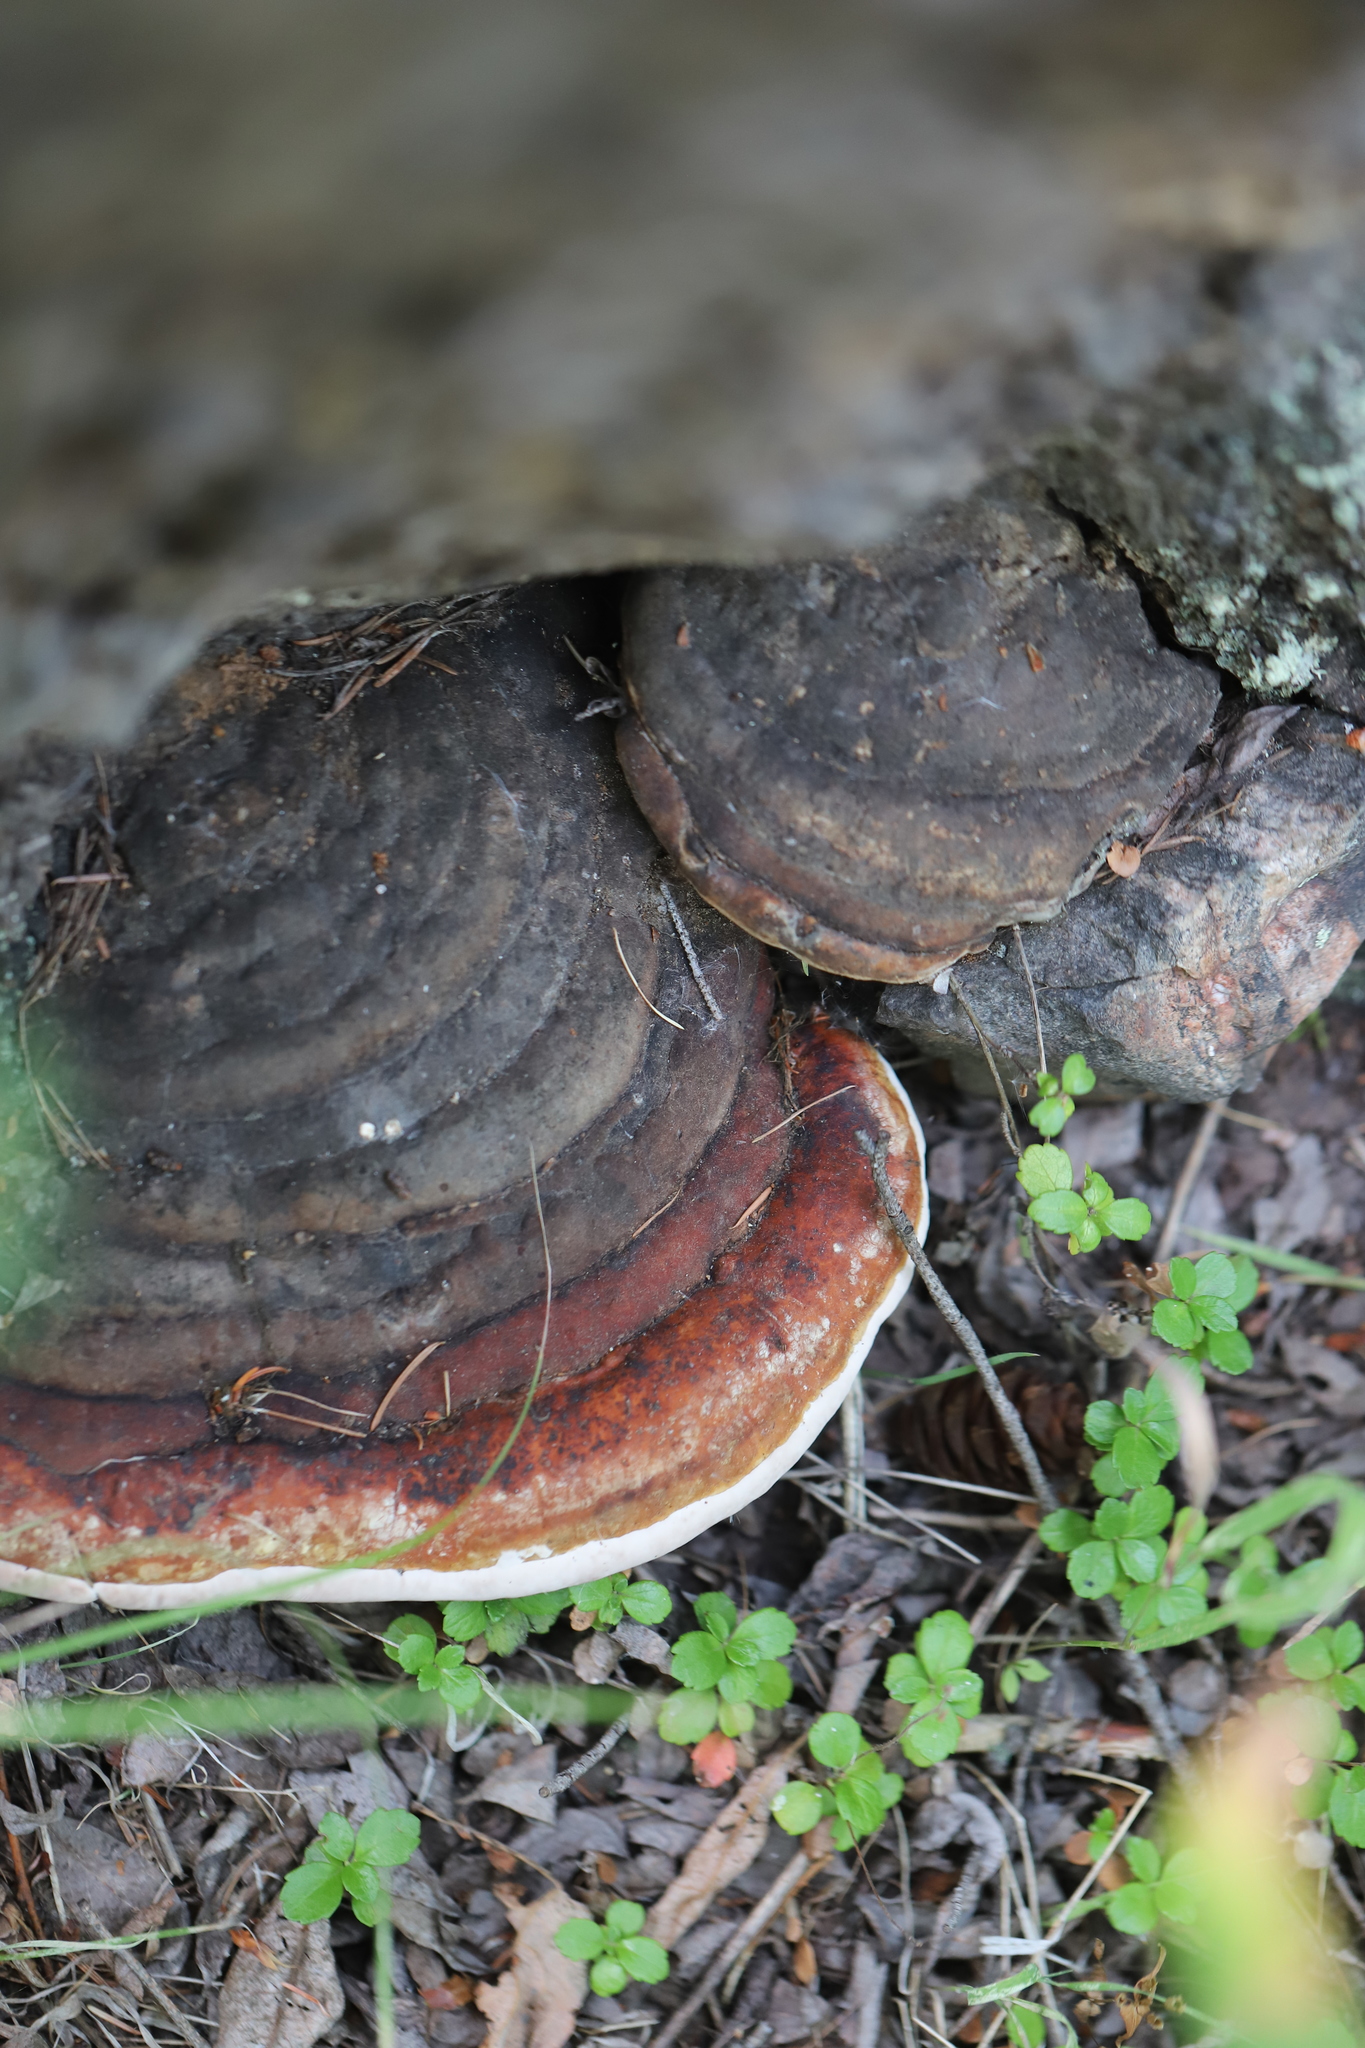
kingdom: Fungi
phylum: Basidiomycota
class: Agaricomycetes
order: Polyporales
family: Fomitopsidaceae
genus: Fomitopsis
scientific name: Fomitopsis mounceae
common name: Northern red belt
